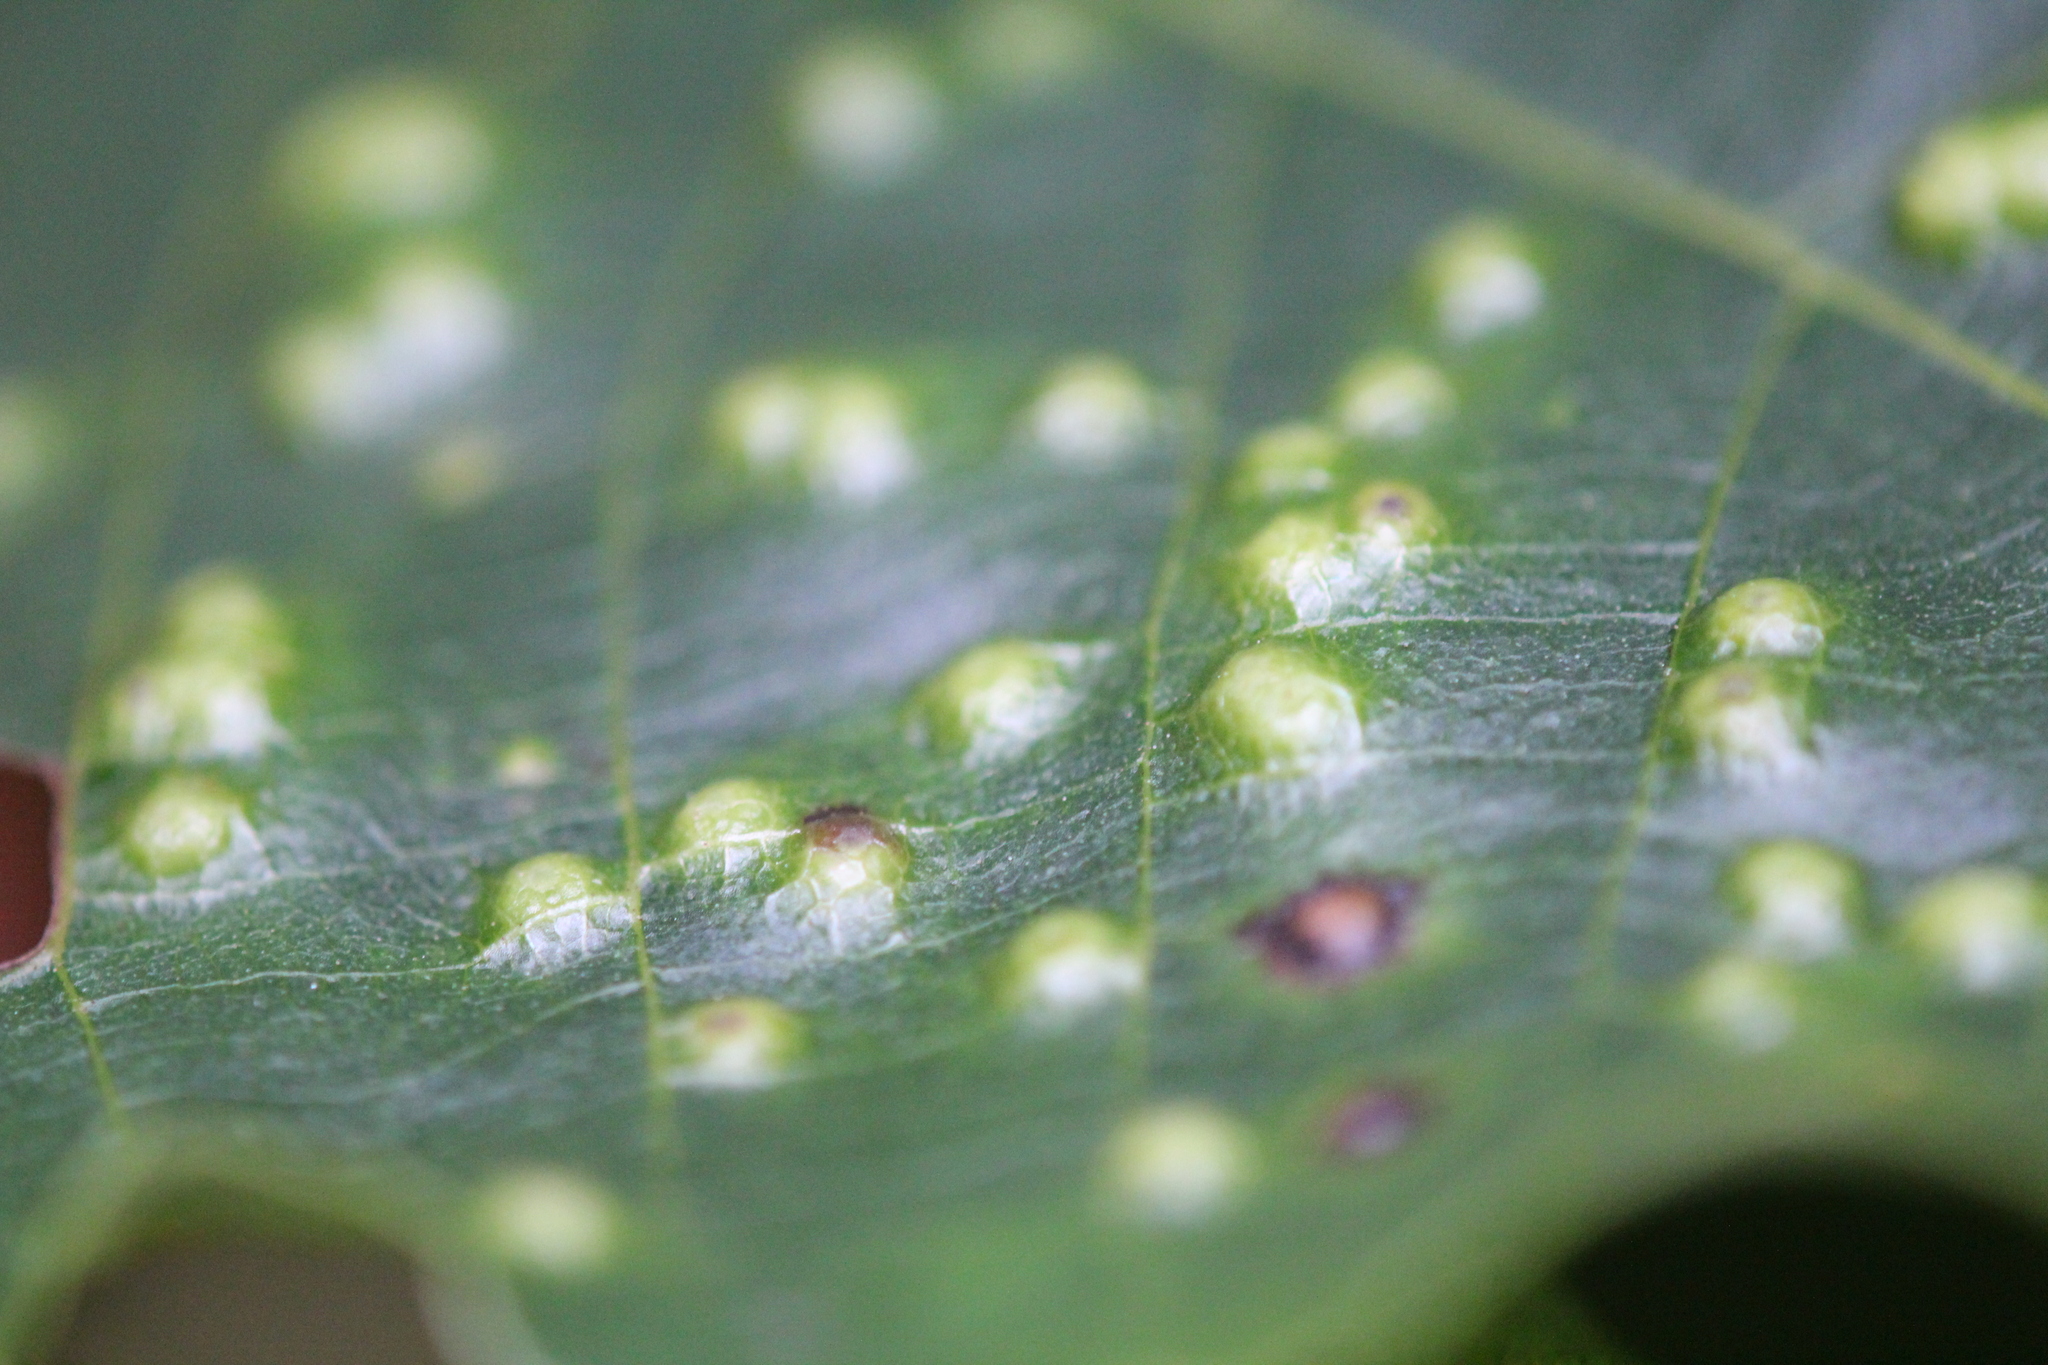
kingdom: Animalia
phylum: Arthropoda
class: Insecta
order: Hemiptera
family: Phylloxeridae
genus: Phylloxera
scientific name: Phylloxera caryae-semen
